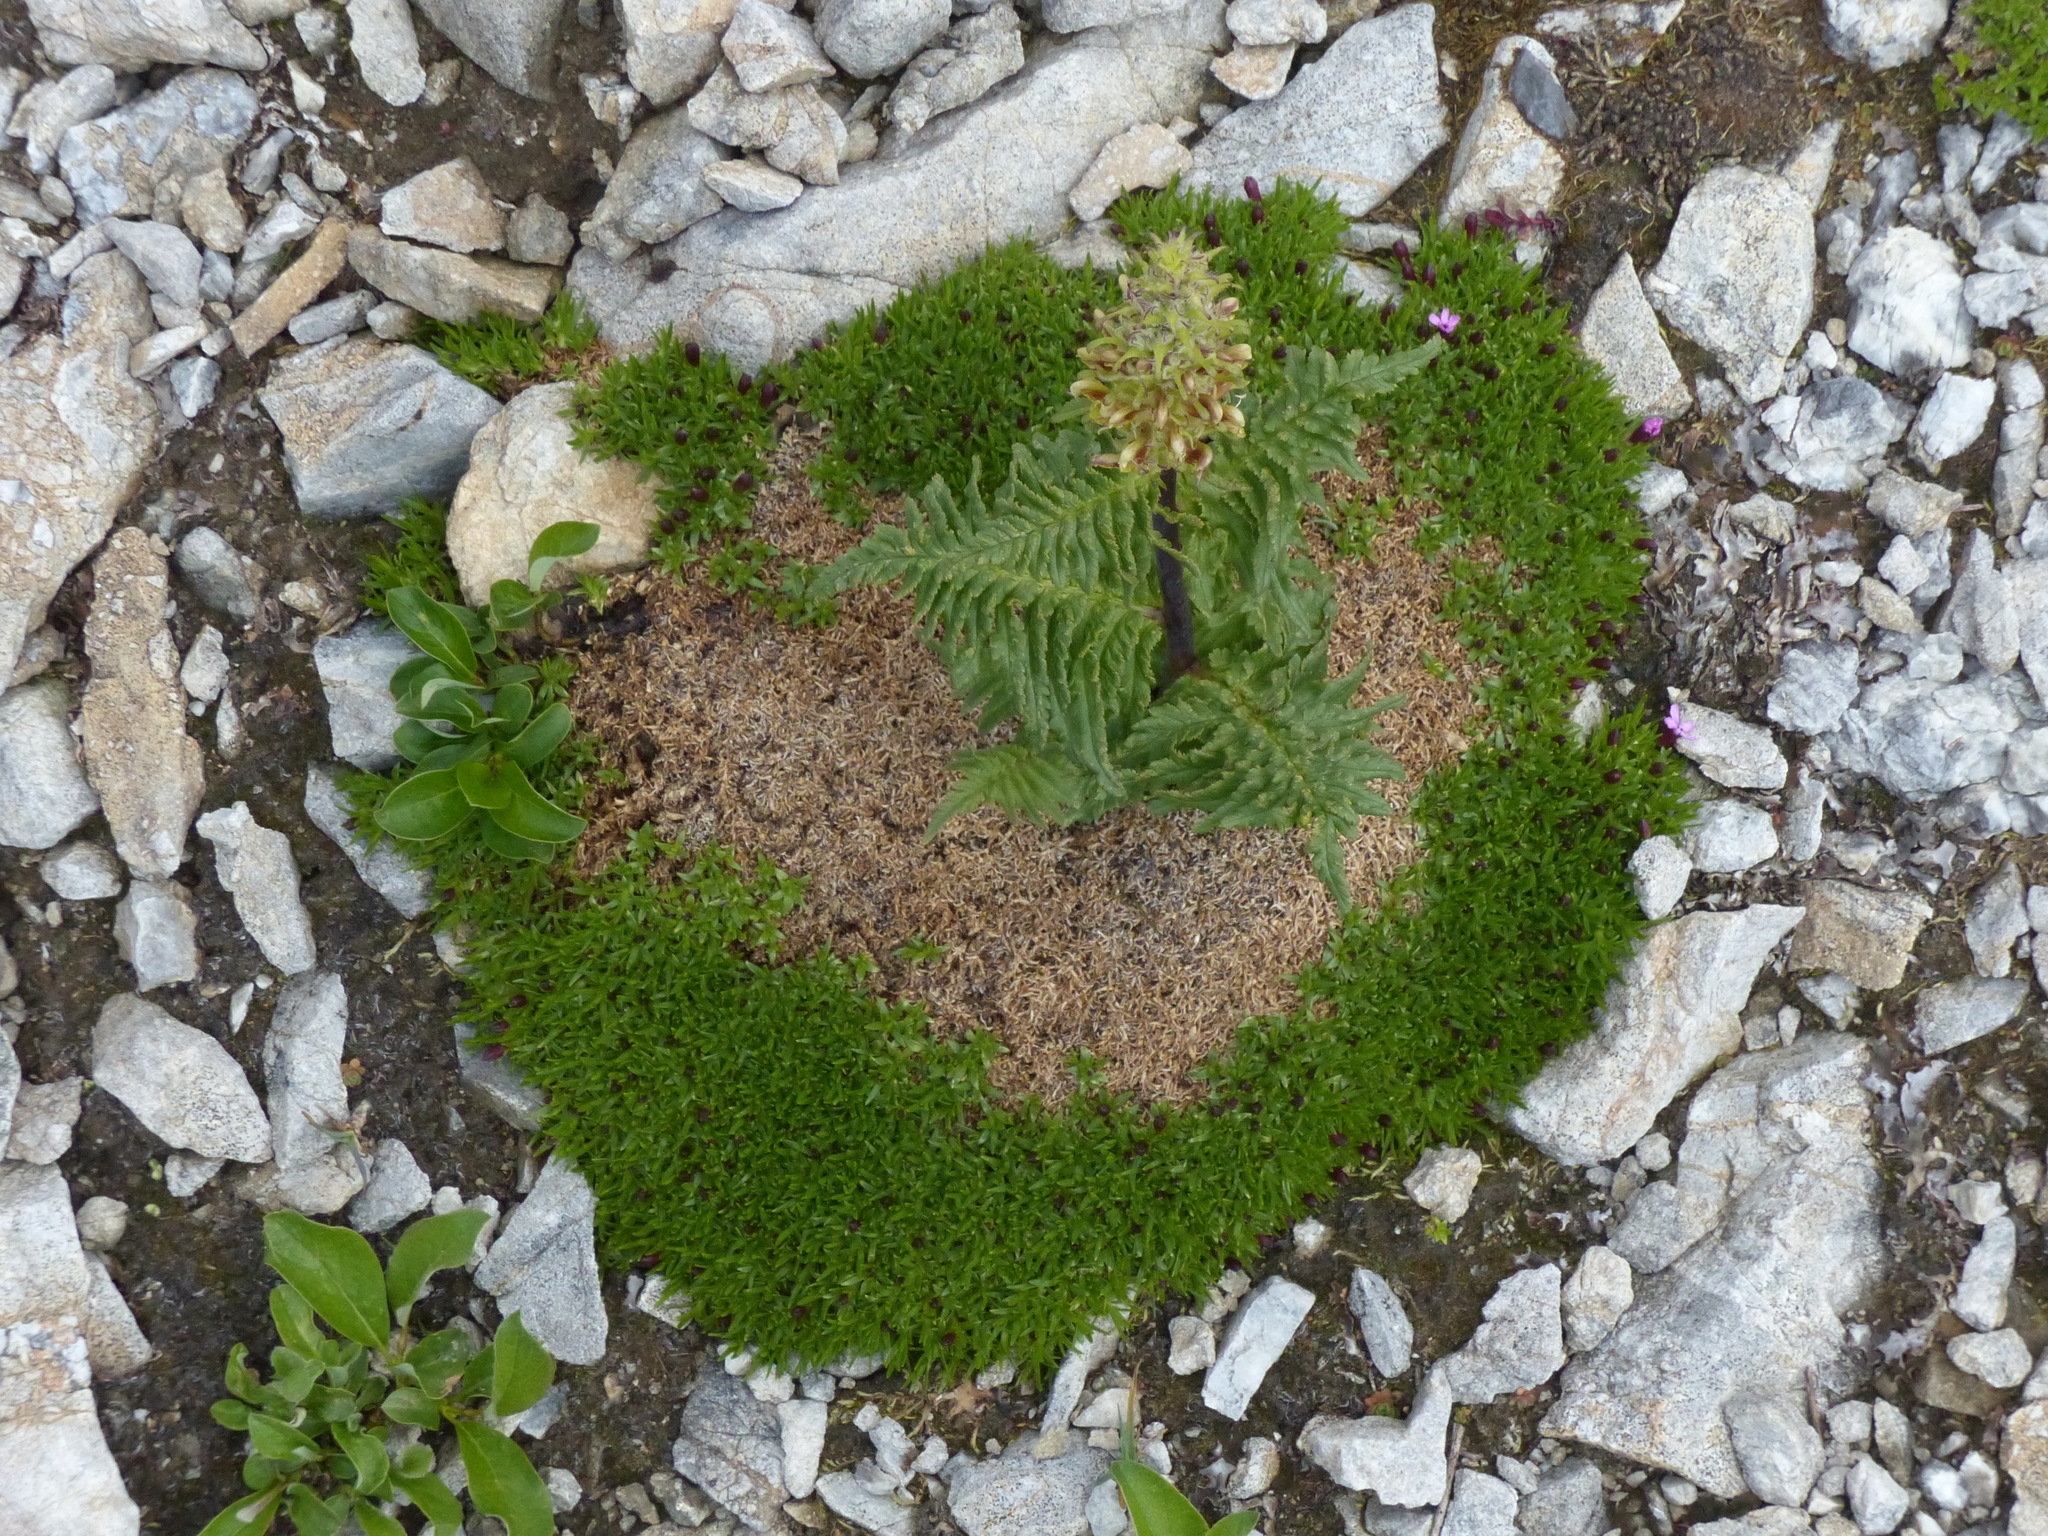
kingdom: Plantae
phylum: Tracheophyta
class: Magnoliopsida
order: Lamiales
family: Orobanchaceae
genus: Pedicularis
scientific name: Pedicularis bracteosa
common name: Bracted lousewort
